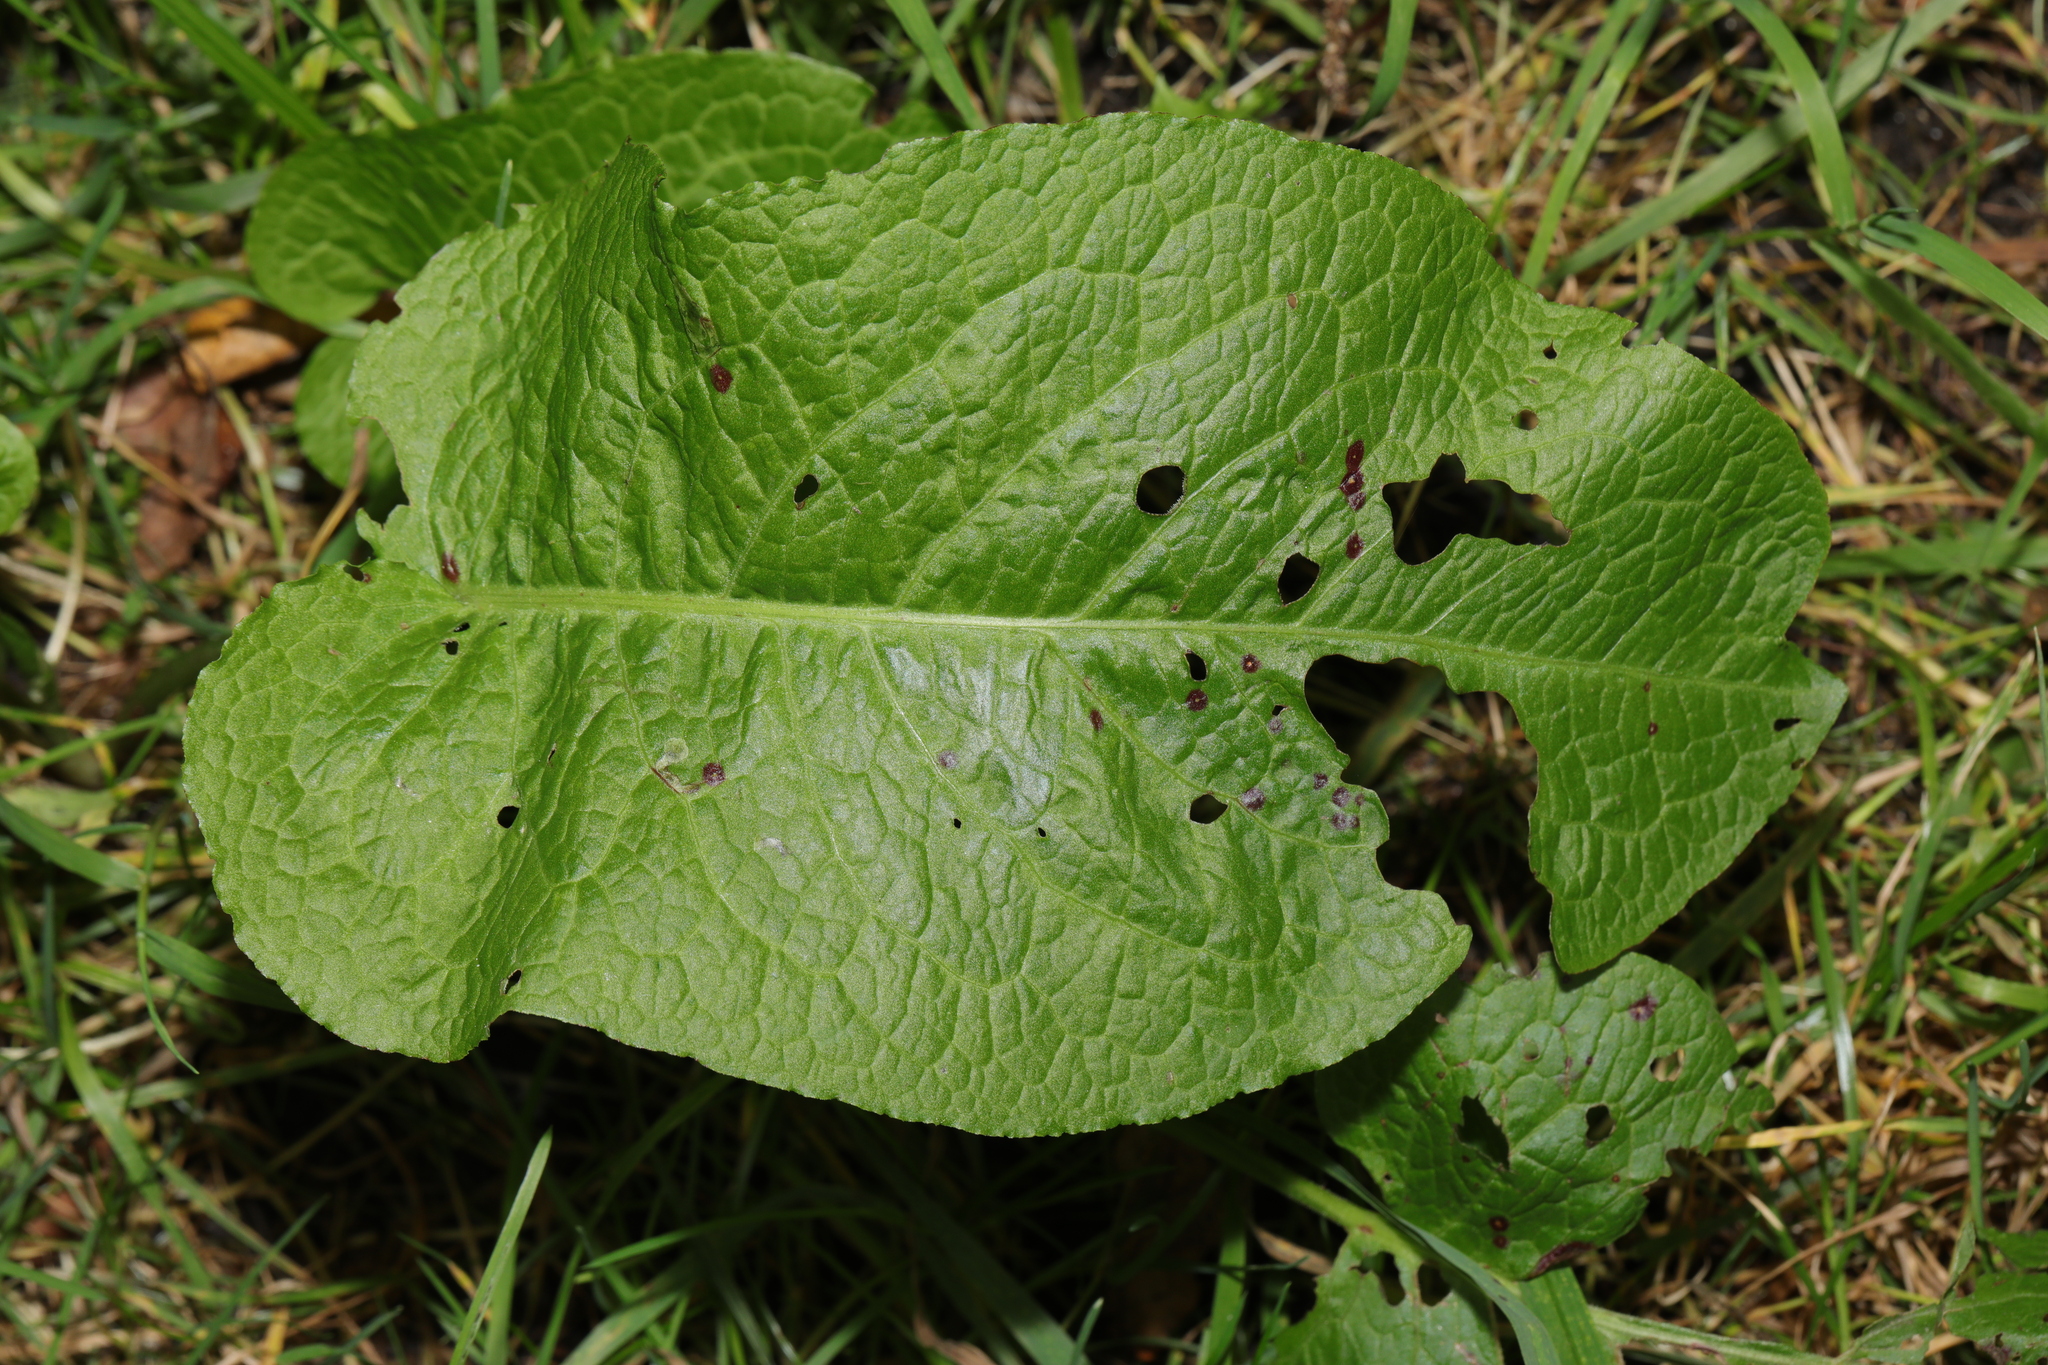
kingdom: Plantae
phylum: Tracheophyta
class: Magnoliopsida
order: Caryophyllales
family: Polygonaceae
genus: Rumex
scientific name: Rumex obtusifolius
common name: Bitter dock
